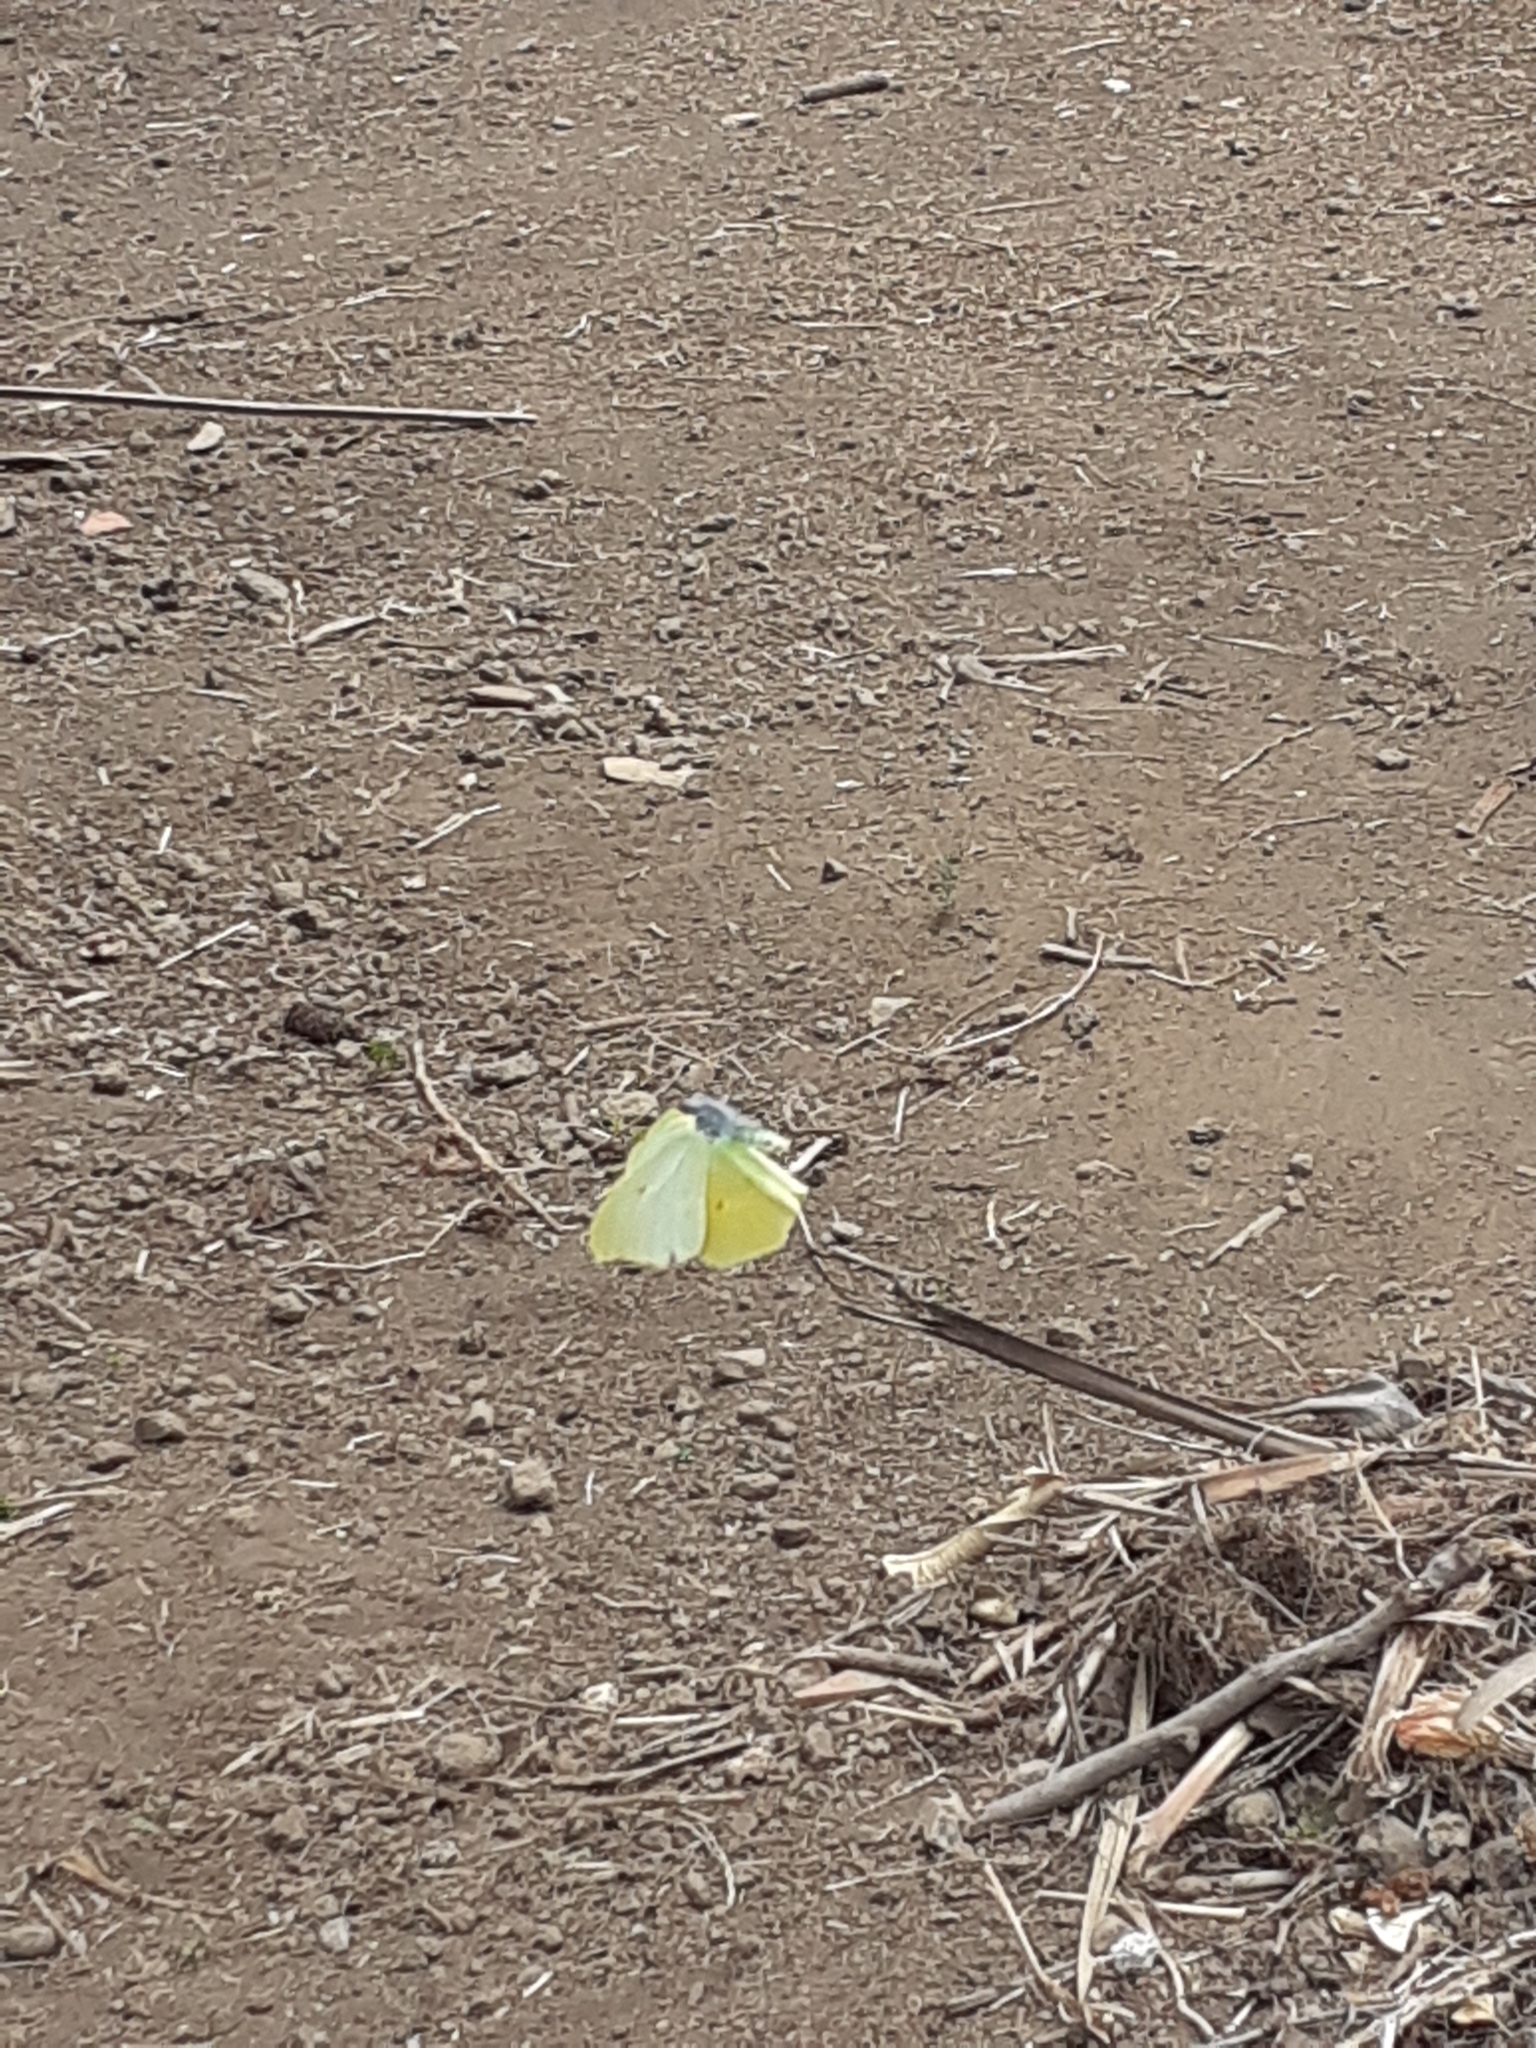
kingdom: Animalia
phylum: Arthropoda
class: Insecta
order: Lepidoptera
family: Pieridae
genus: Gonepteryx
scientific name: Gonepteryx cleobule
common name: Canary brimstone
